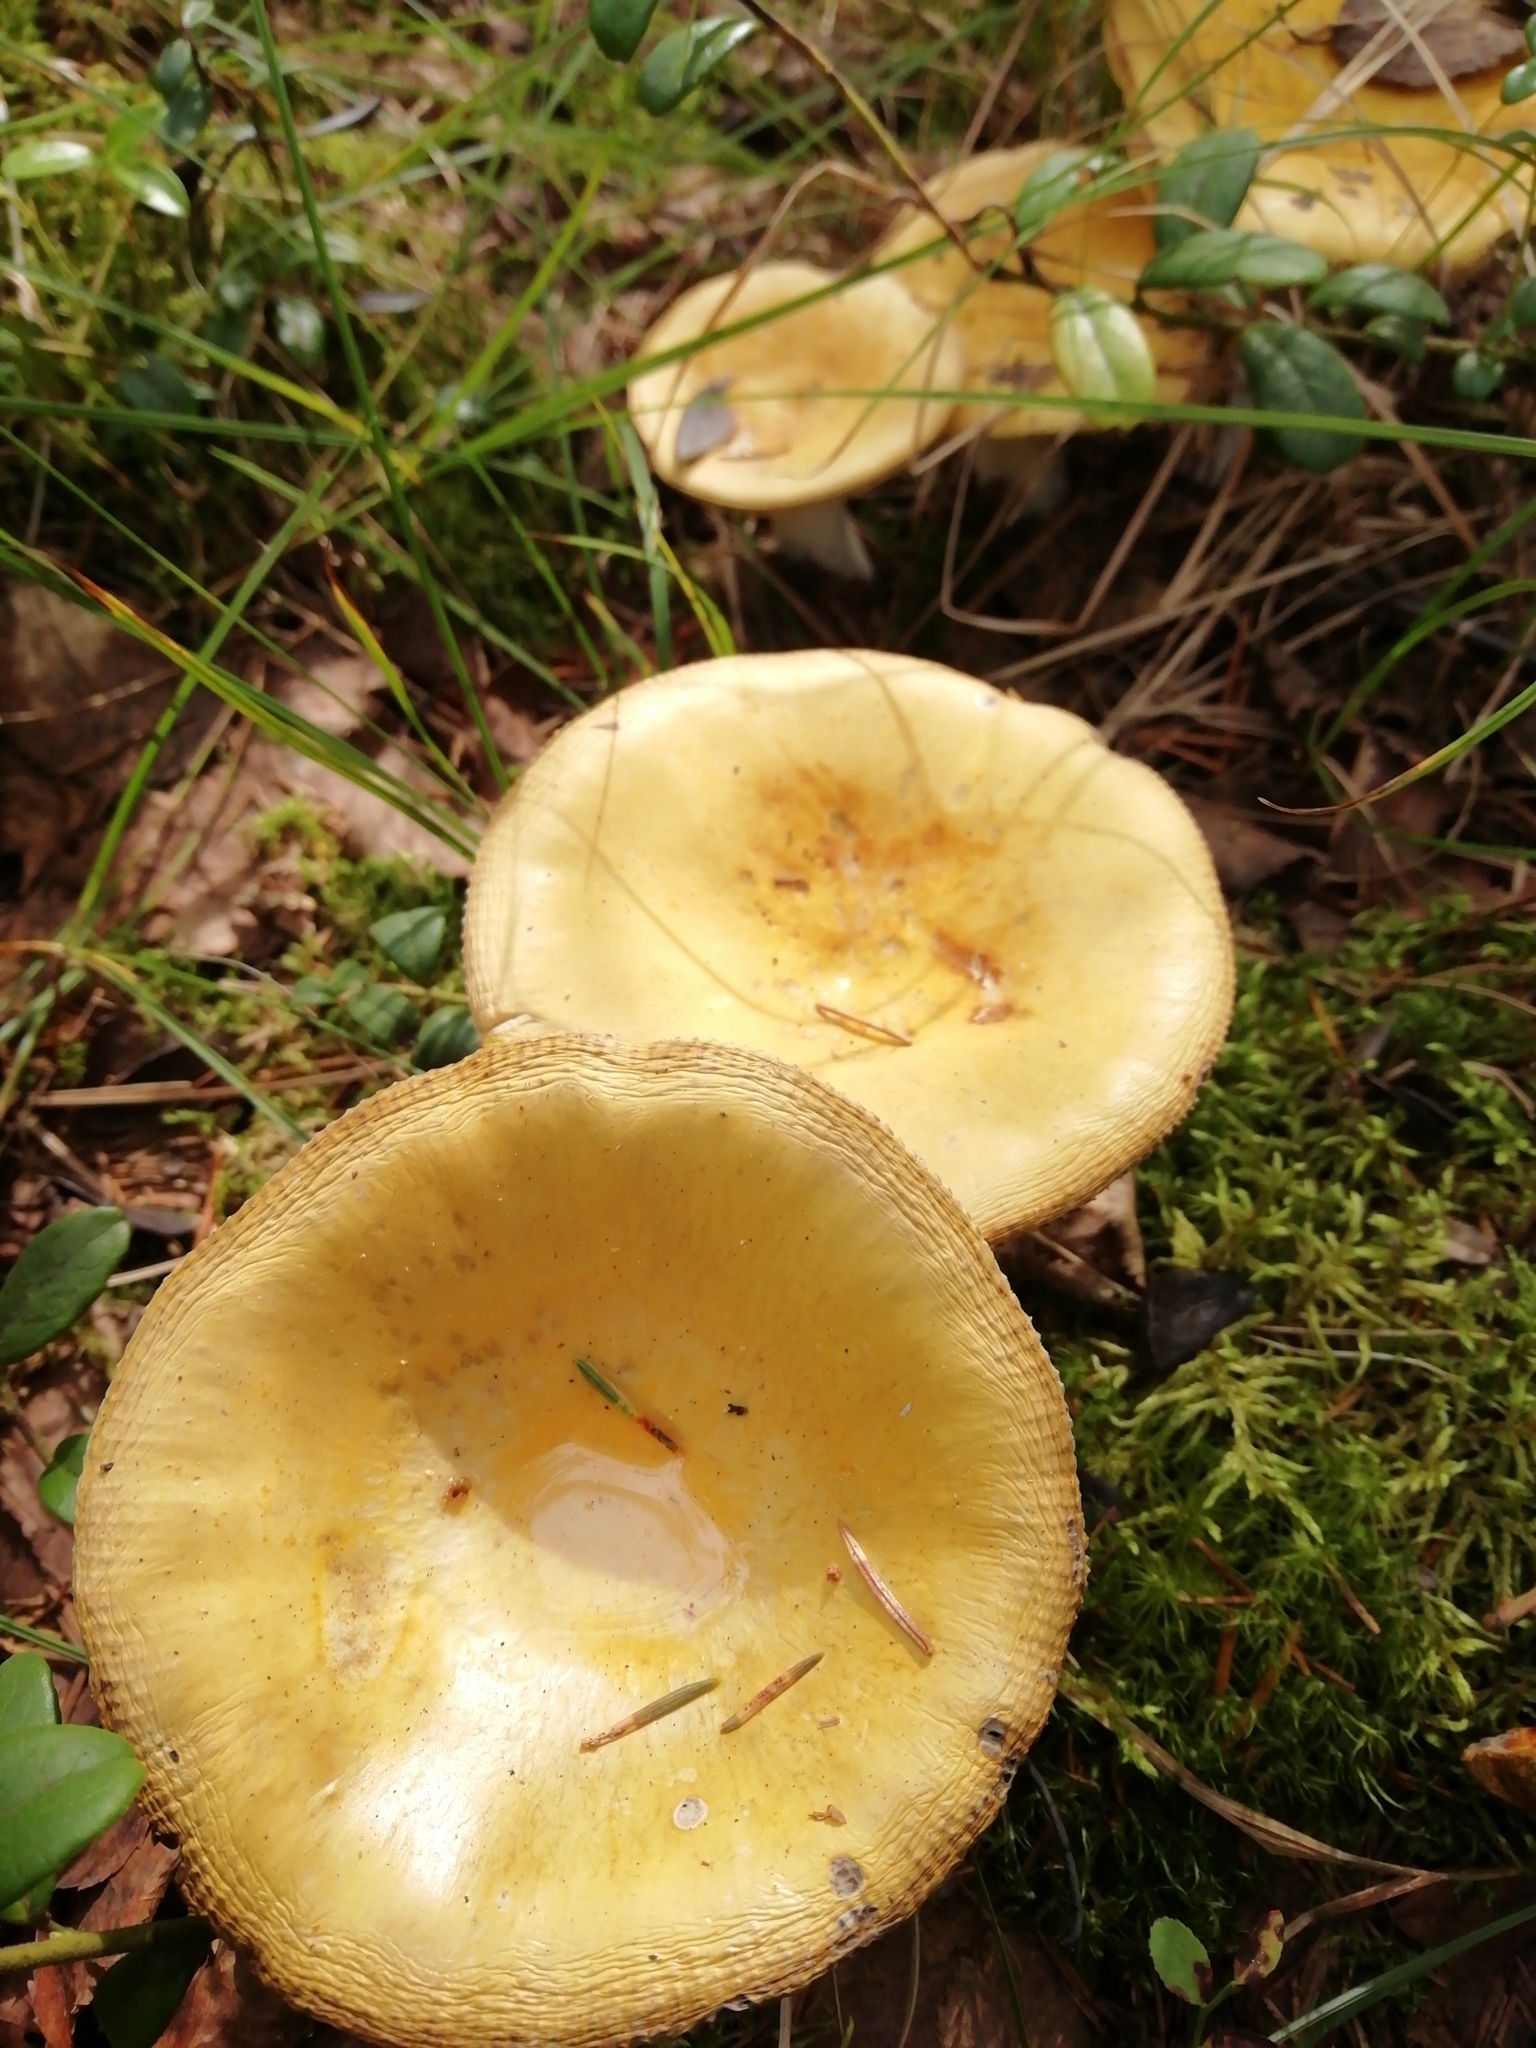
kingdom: Fungi
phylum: Basidiomycota
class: Agaricomycetes
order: Russulales
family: Russulaceae
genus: Russula
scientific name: Russula claroflava
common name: The yellow swamp brittlegill
